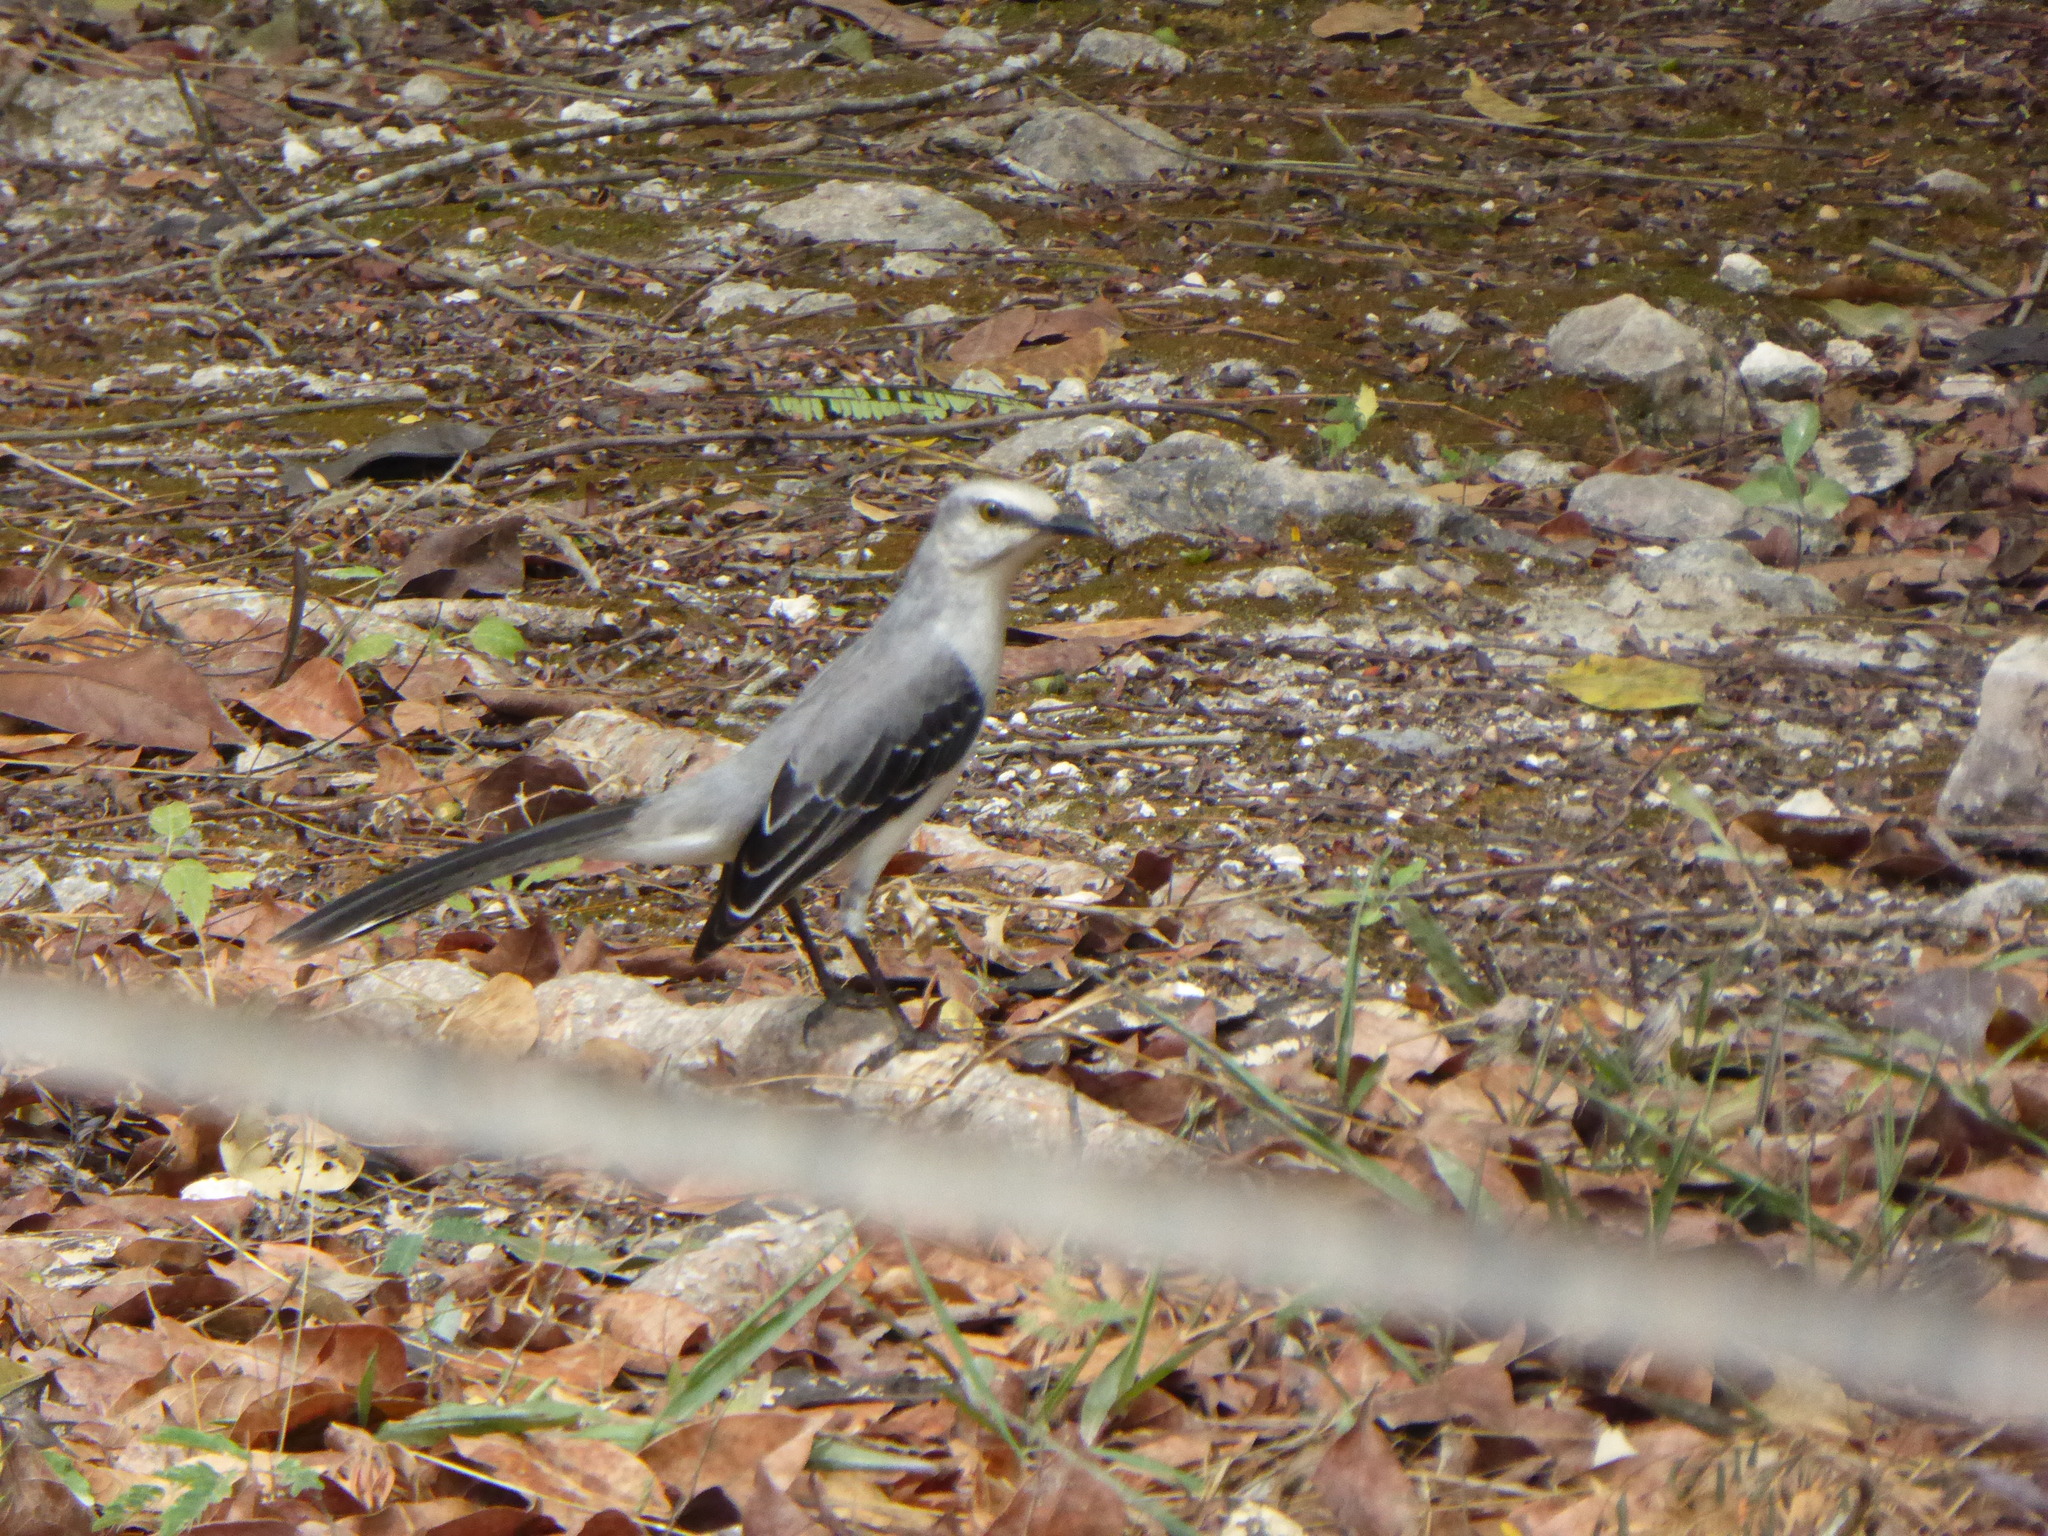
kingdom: Animalia
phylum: Chordata
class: Aves
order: Passeriformes
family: Mimidae
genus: Mimus
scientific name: Mimus gilvus
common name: Tropical mockingbird
